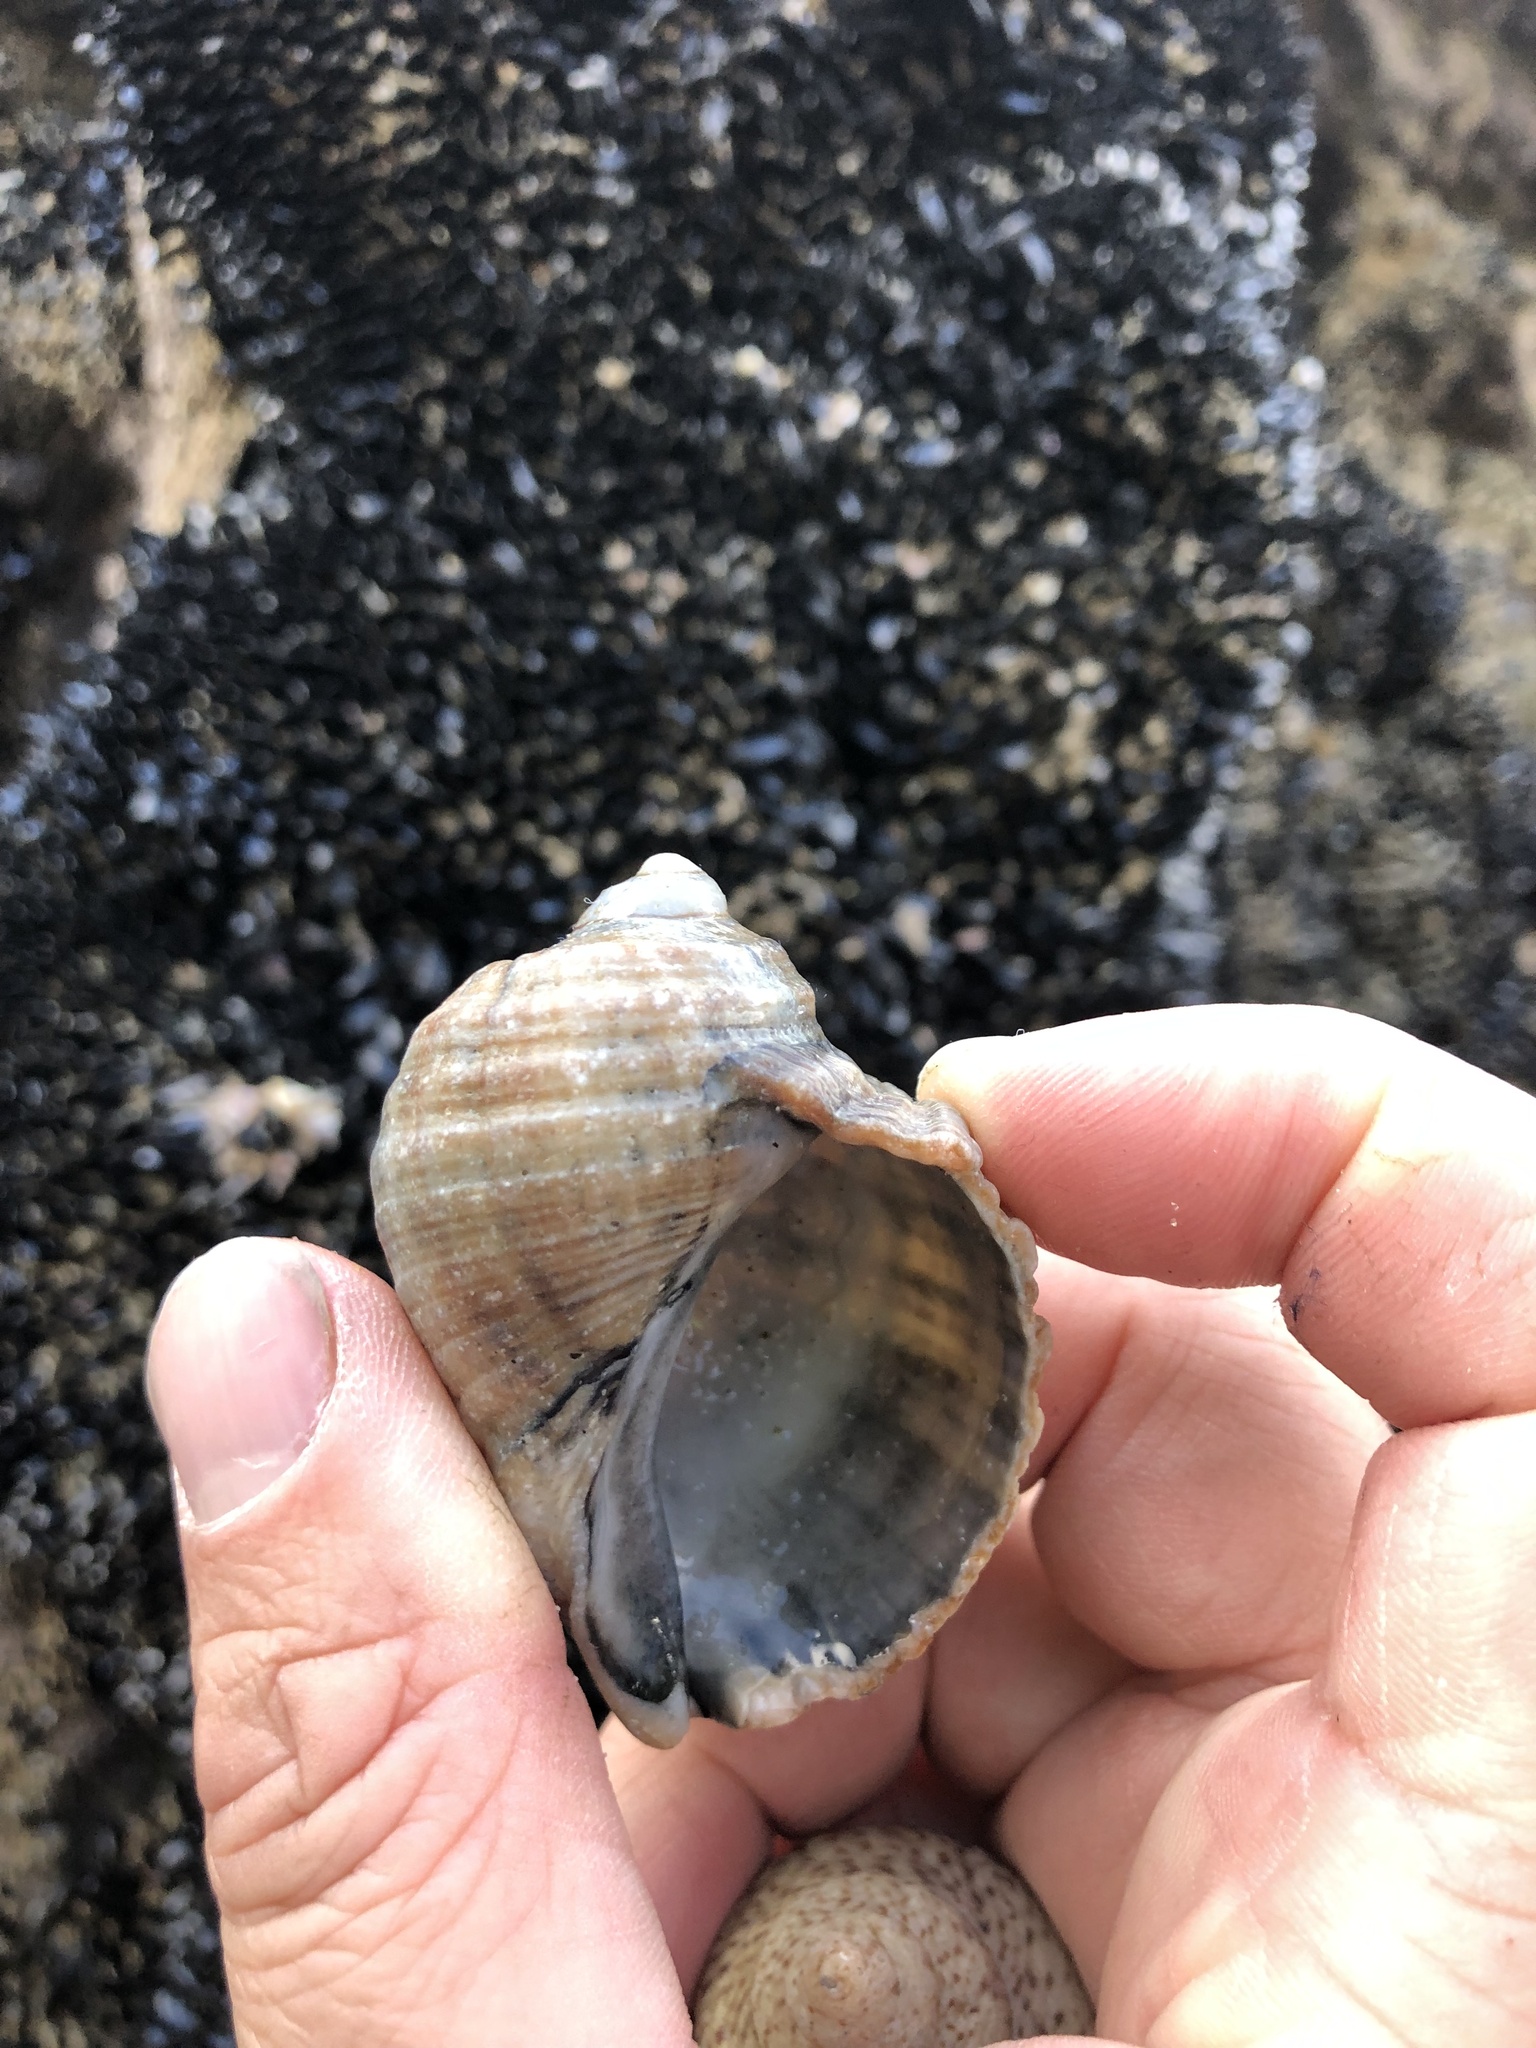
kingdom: Animalia
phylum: Mollusca
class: Gastropoda
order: Neogastropoda
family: Muricidae
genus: Dicathais
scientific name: Dicathais orbita
